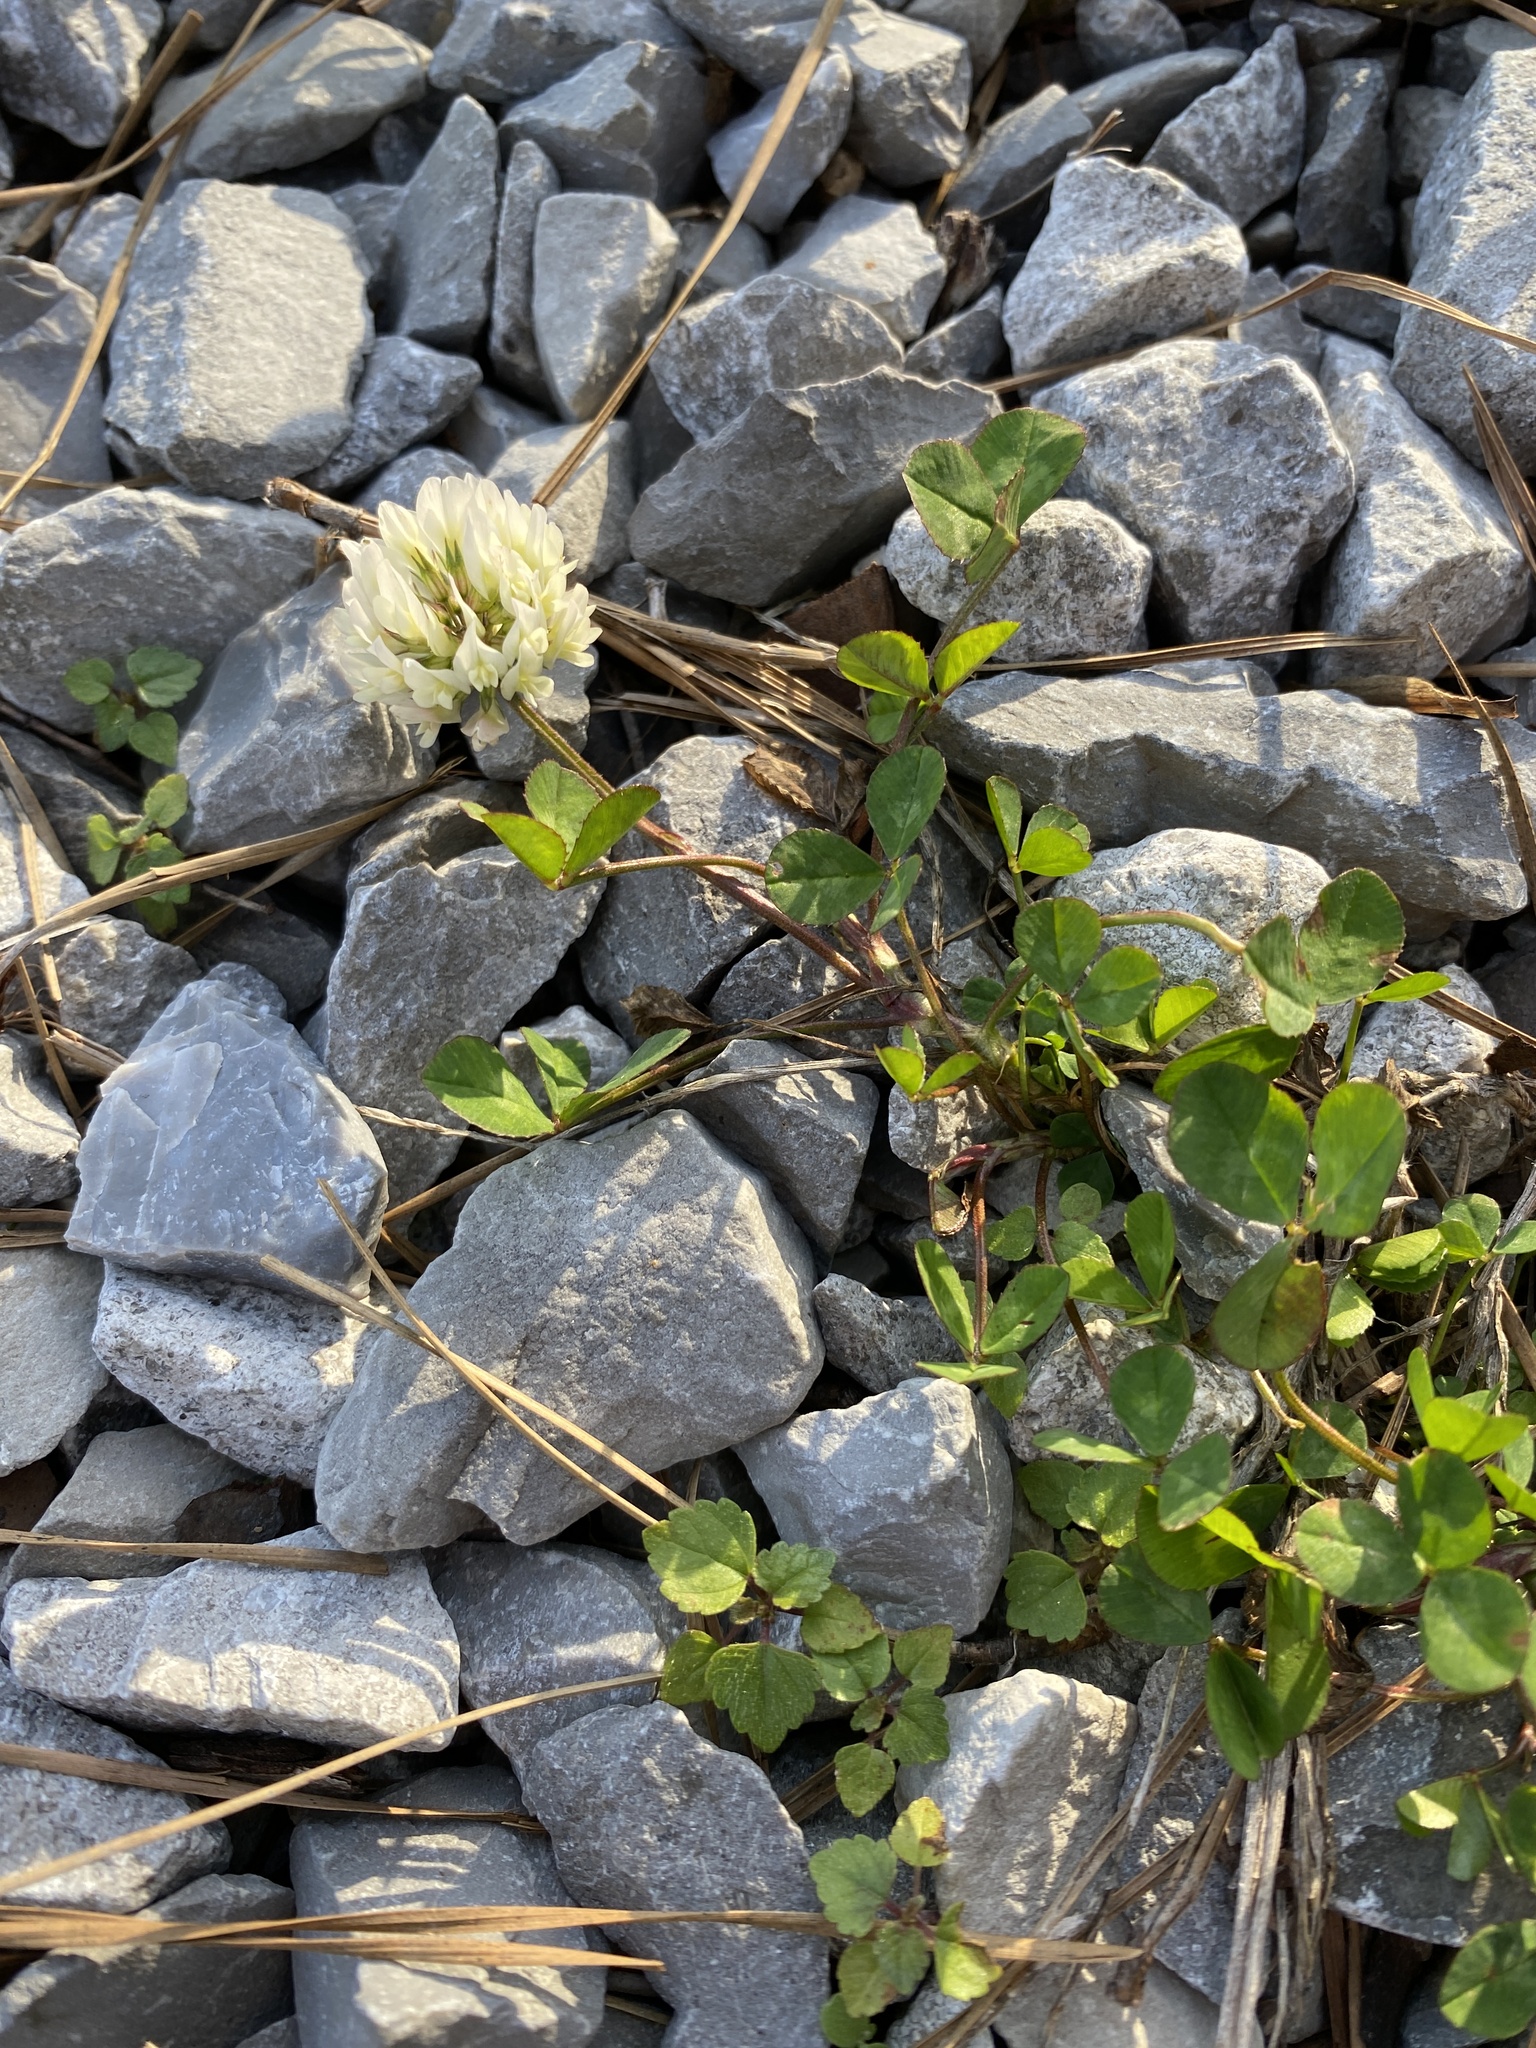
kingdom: Plantae
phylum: Tracheophyta
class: Magnoliopsida
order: Fabales
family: Fabaceae
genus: Trifolium
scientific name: Trifolium repens
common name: White clover
